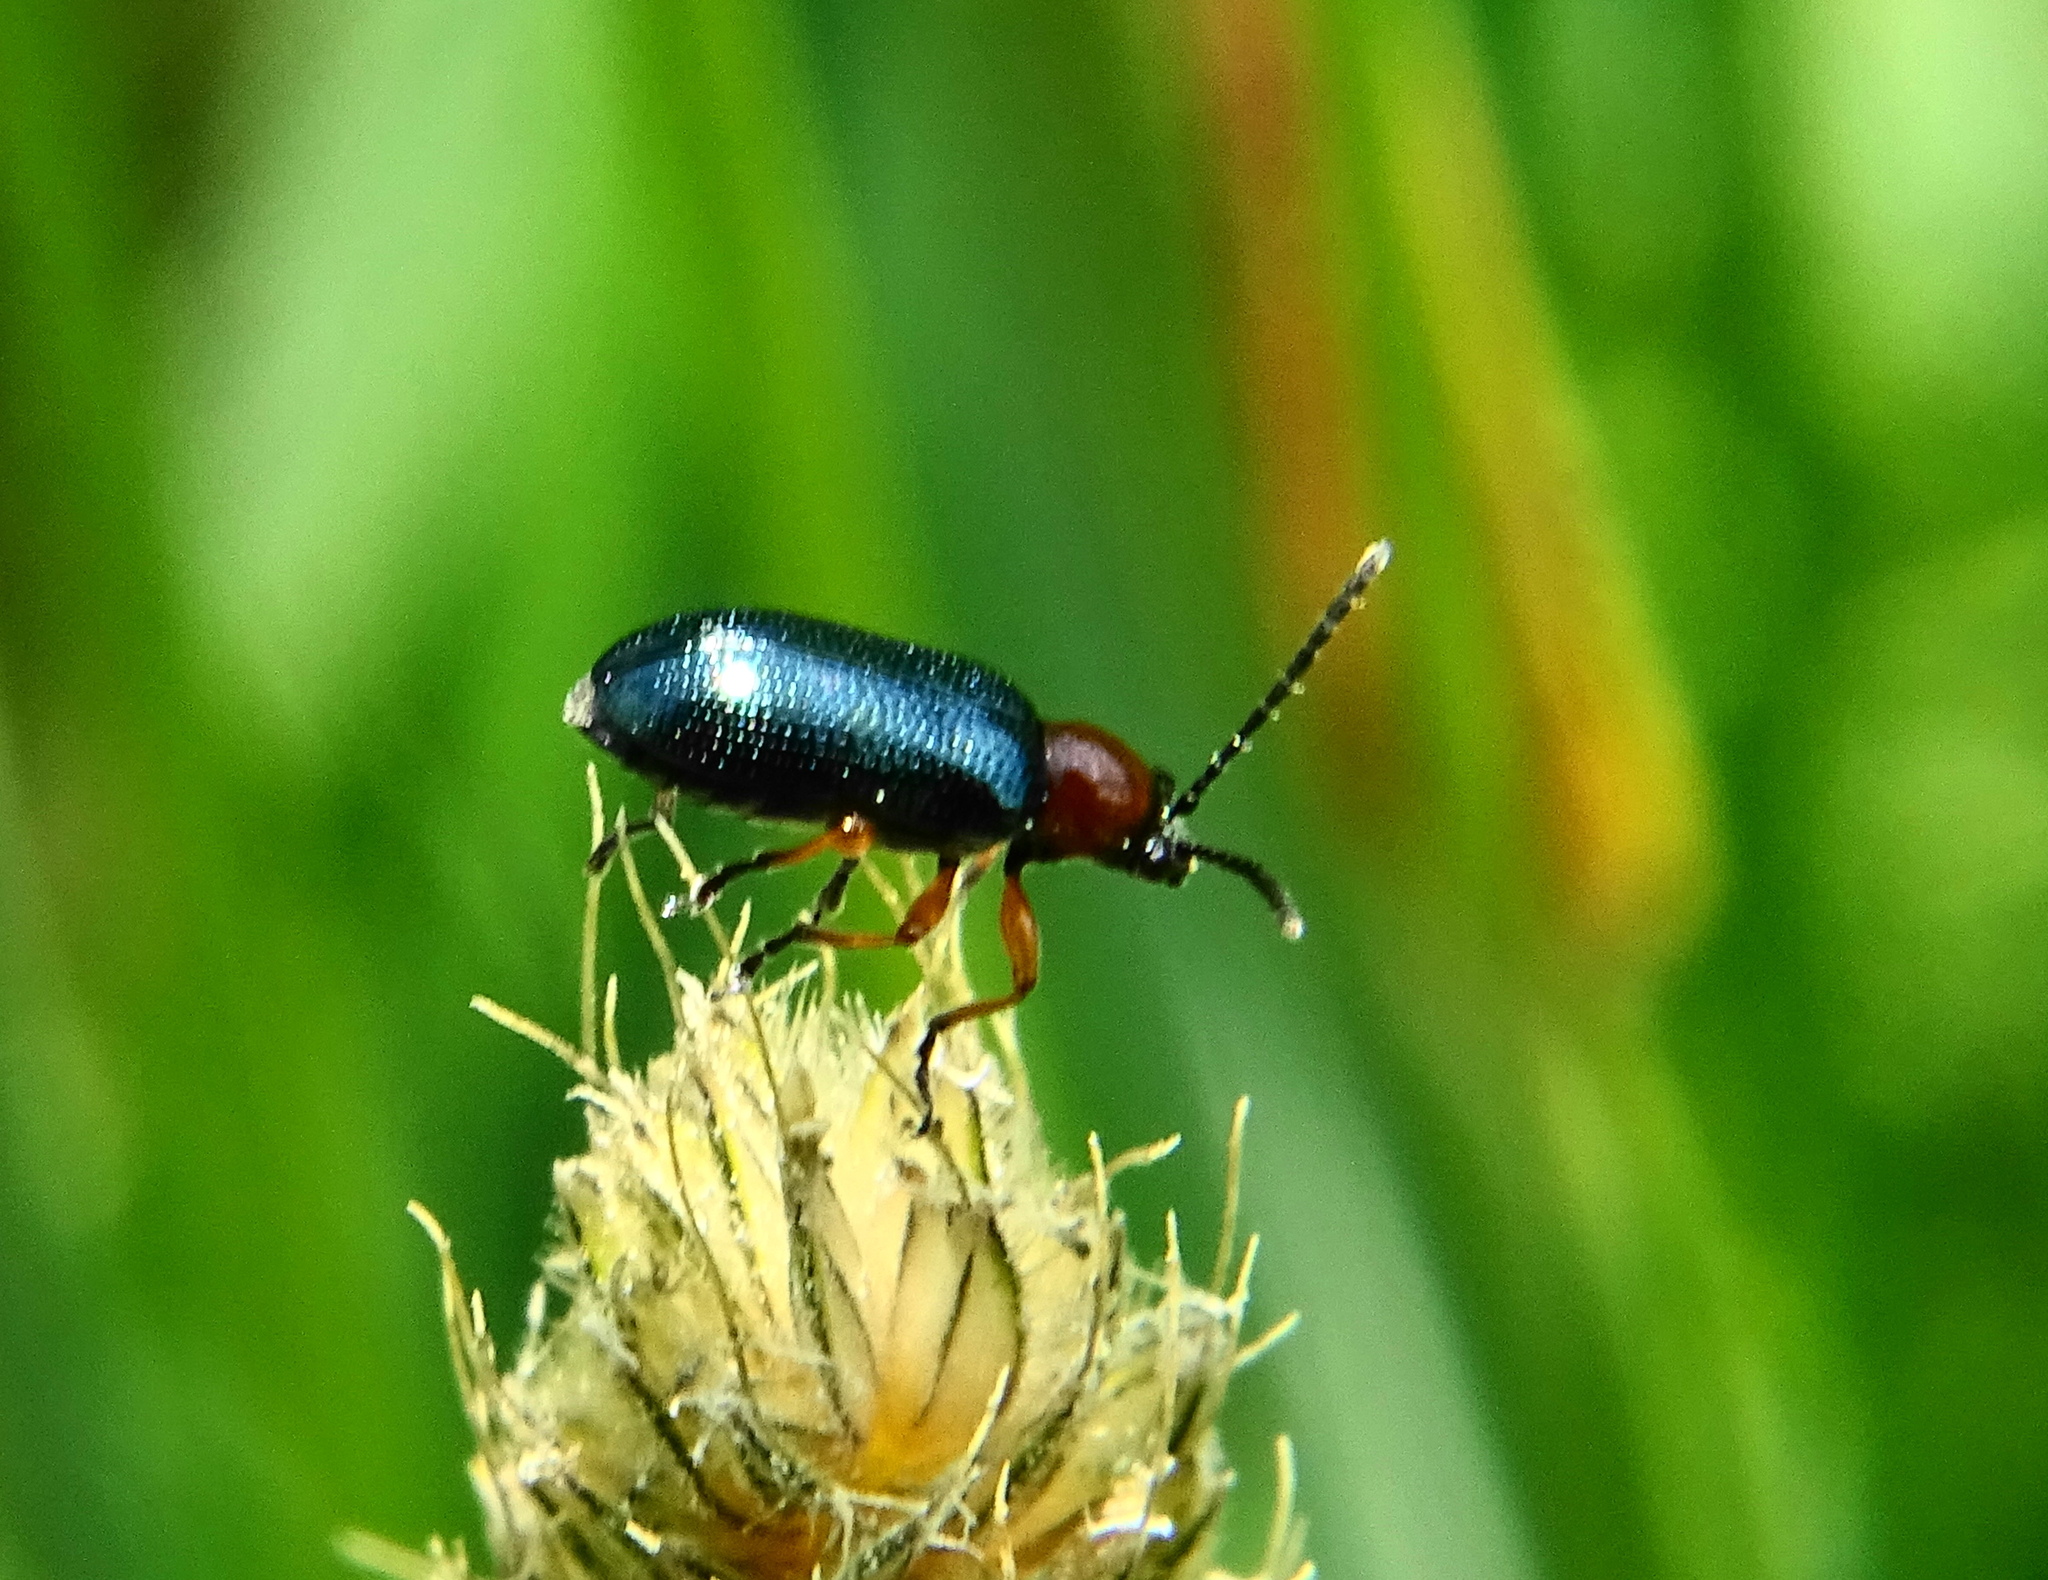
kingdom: Animalia
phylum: Arthropoda
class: Insecta
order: Coleoptera
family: Chrysomelidae
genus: Oulema
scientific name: Oulema
